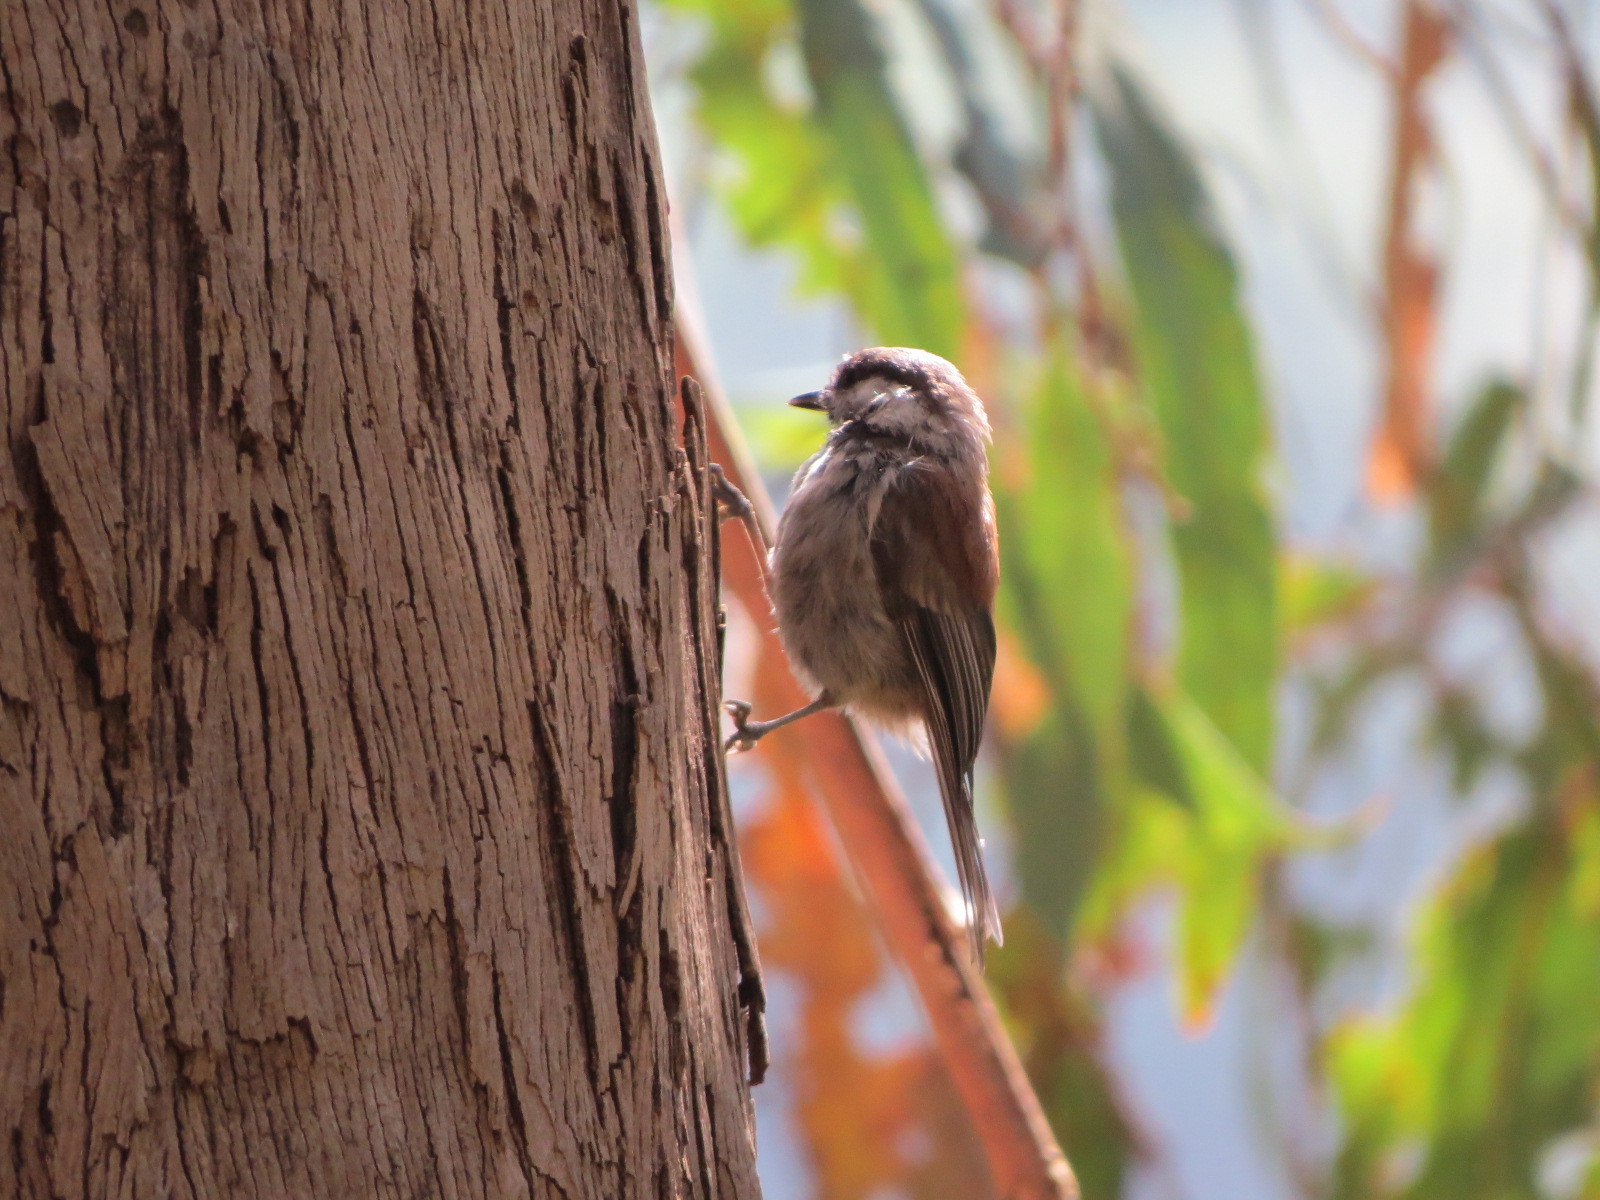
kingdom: Animalia
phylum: Chordata
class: Aves
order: Passeriformes
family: Paridae
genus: Poecile
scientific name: Poecile rufescens
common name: Chestnut-backed chickadee
